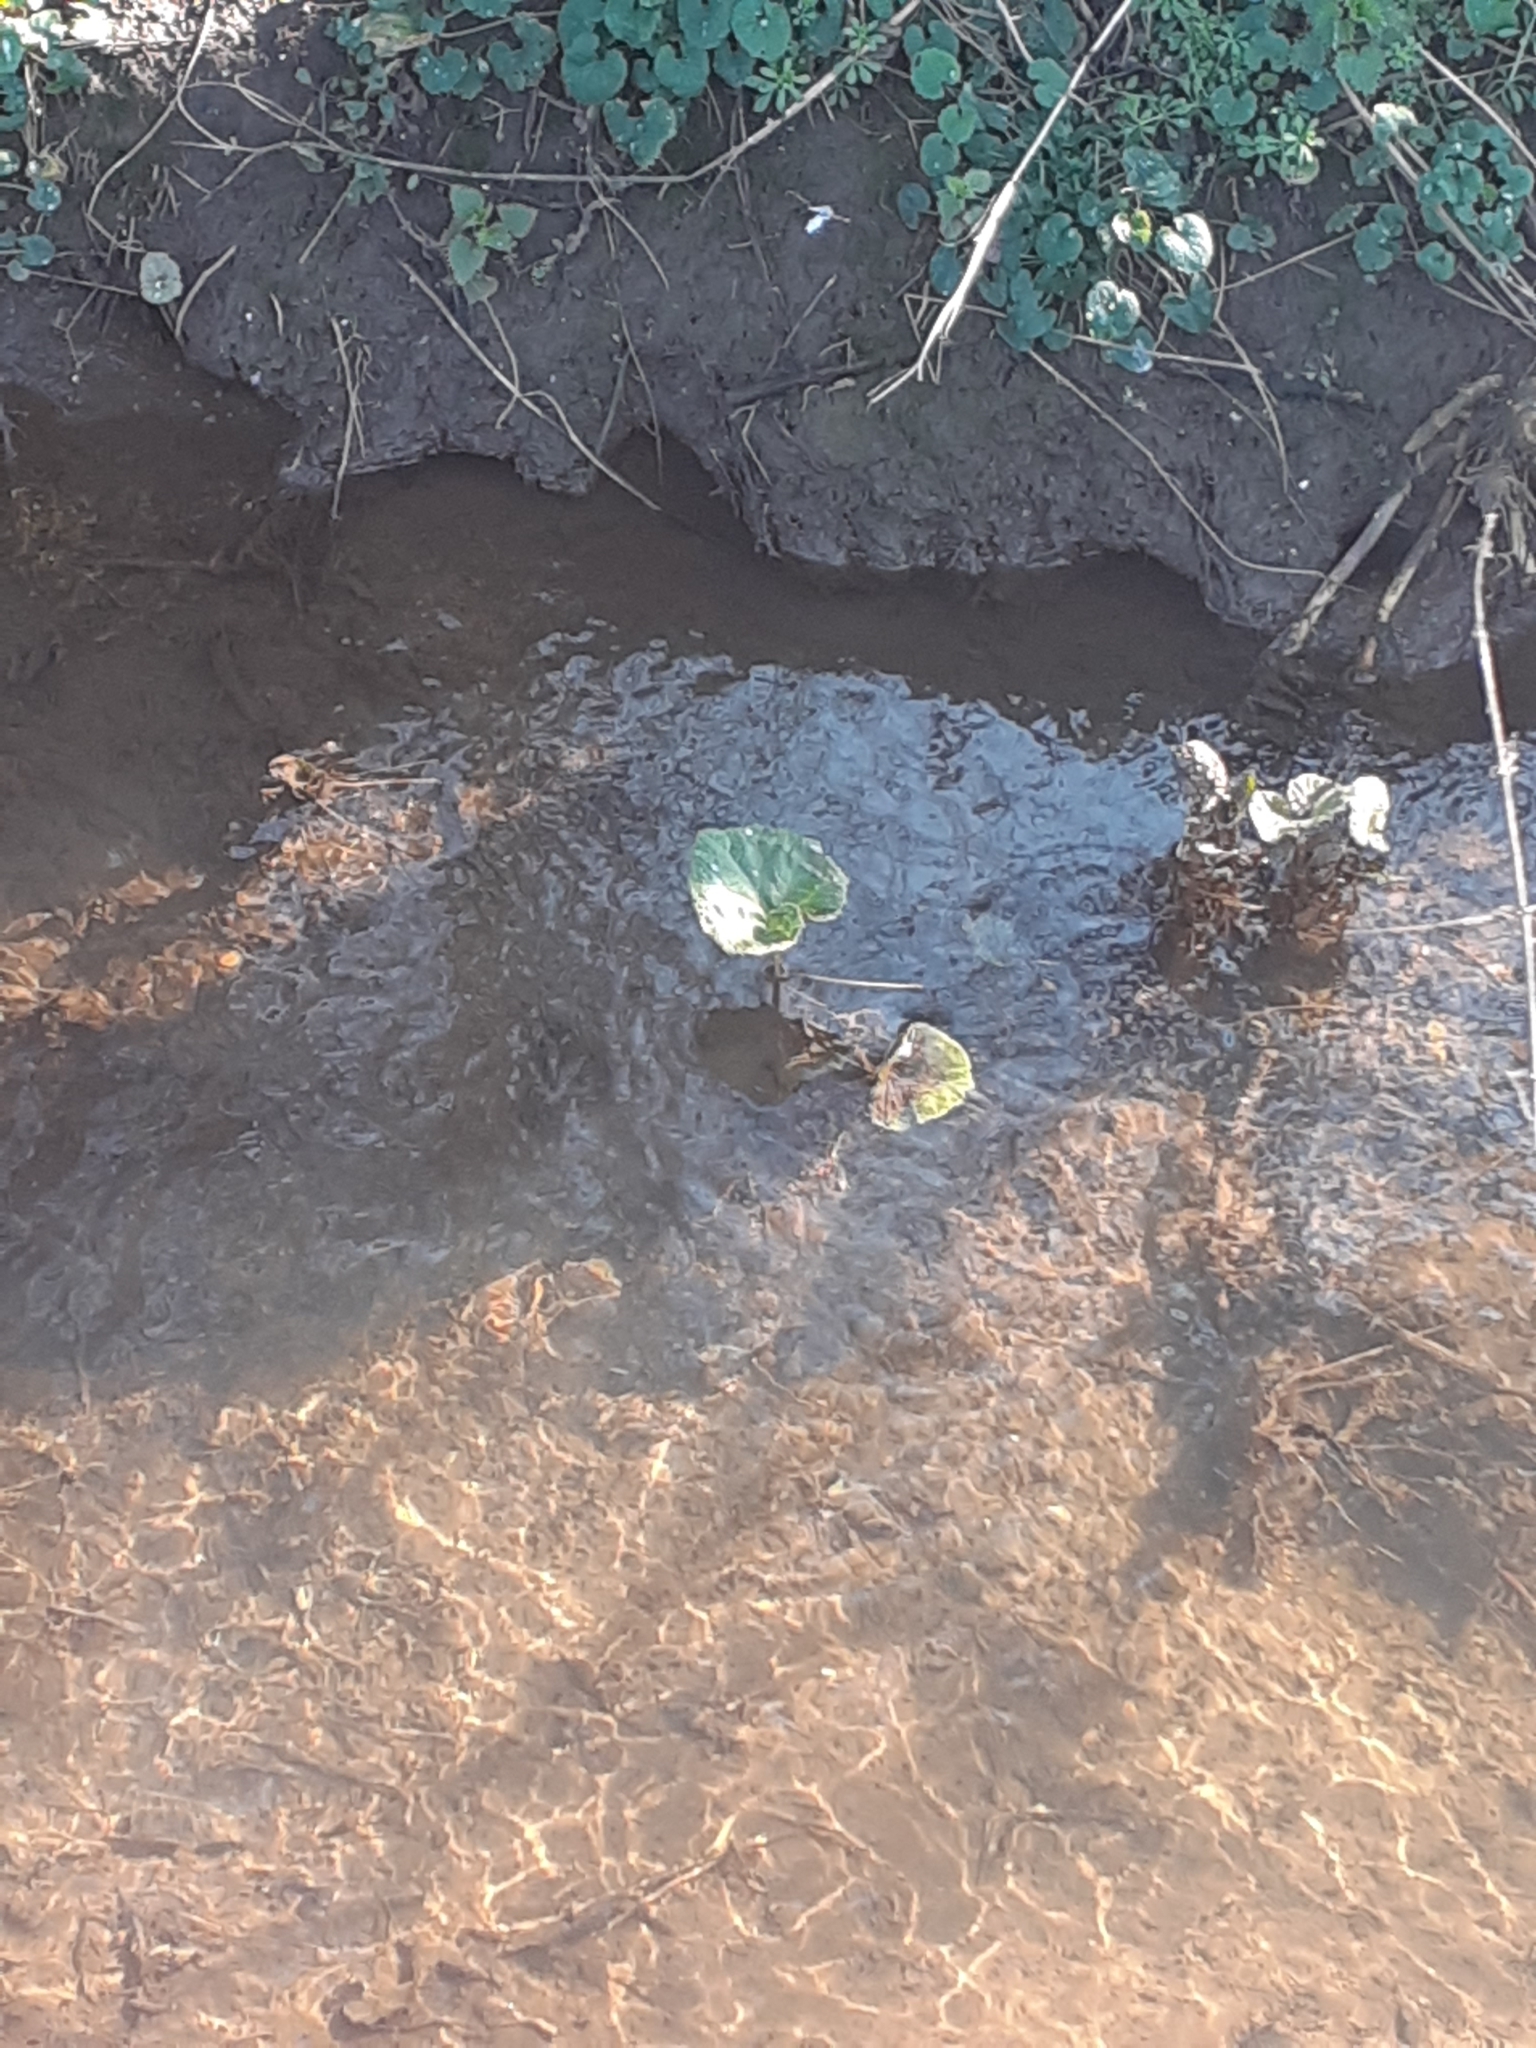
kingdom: Plantae
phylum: Tracheophyta
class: Magnoliopsida
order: Ranunculales
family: Ranunculaceae
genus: Caltha
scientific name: Caltha palustris
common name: Marsh marigold
